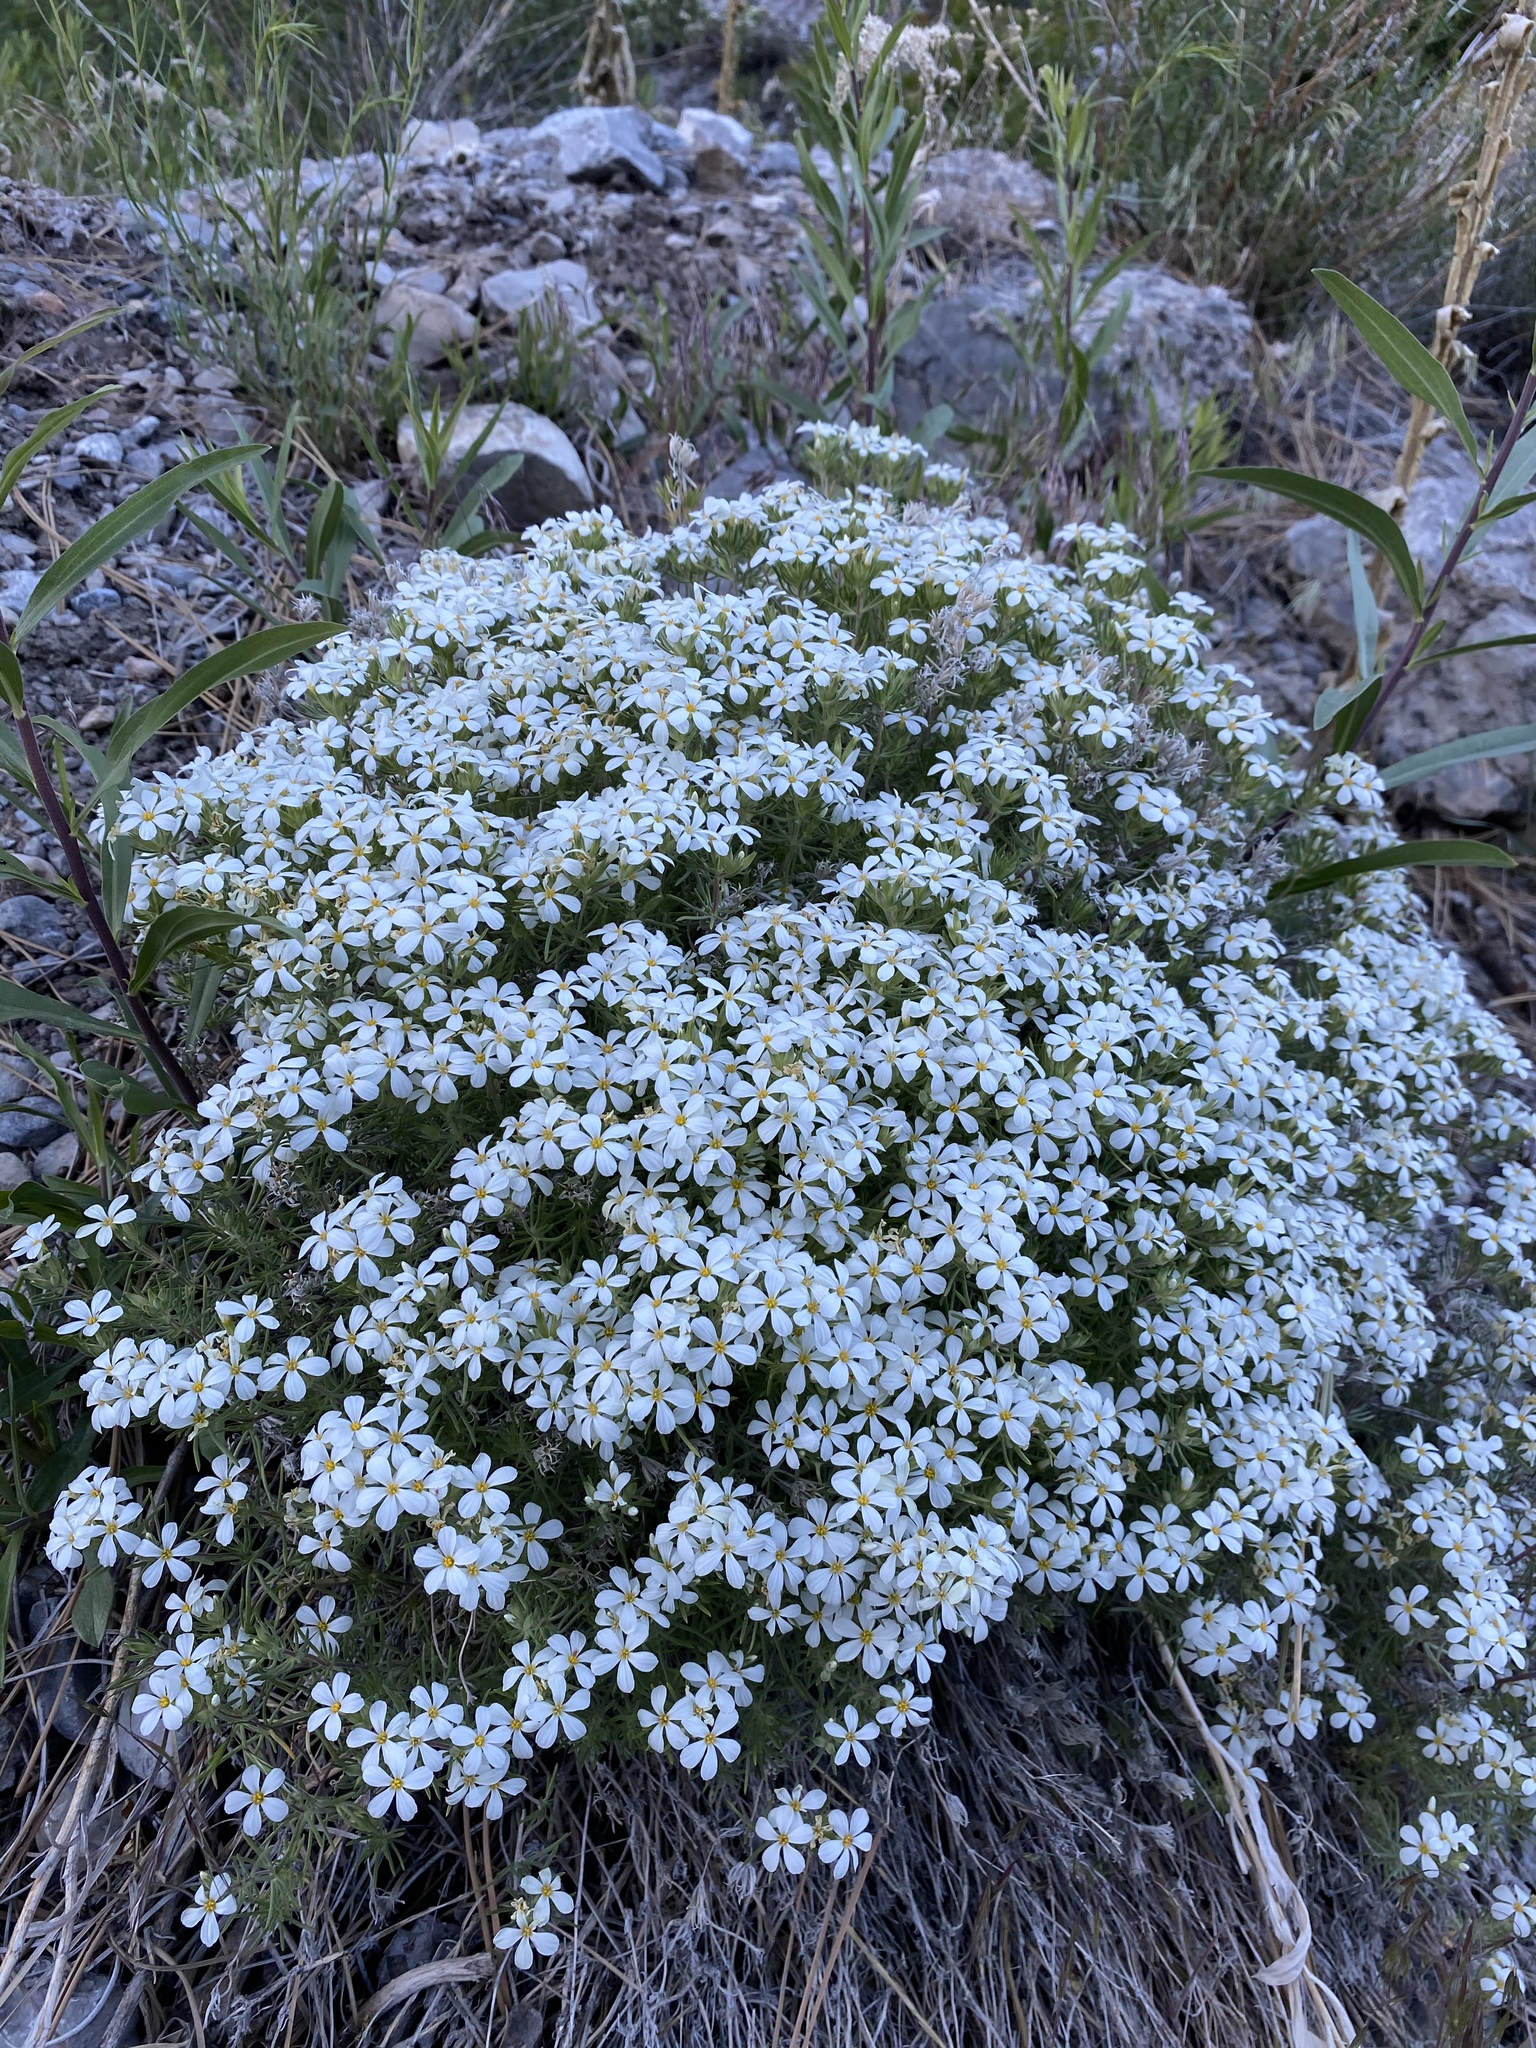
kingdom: Plantae
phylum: Tracheophyta
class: Magnoliopsida
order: Ericales
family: Polemoniaceae
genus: Leptosiphon
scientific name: Leptosiphon nuttallii
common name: Nuttall's linanthus
